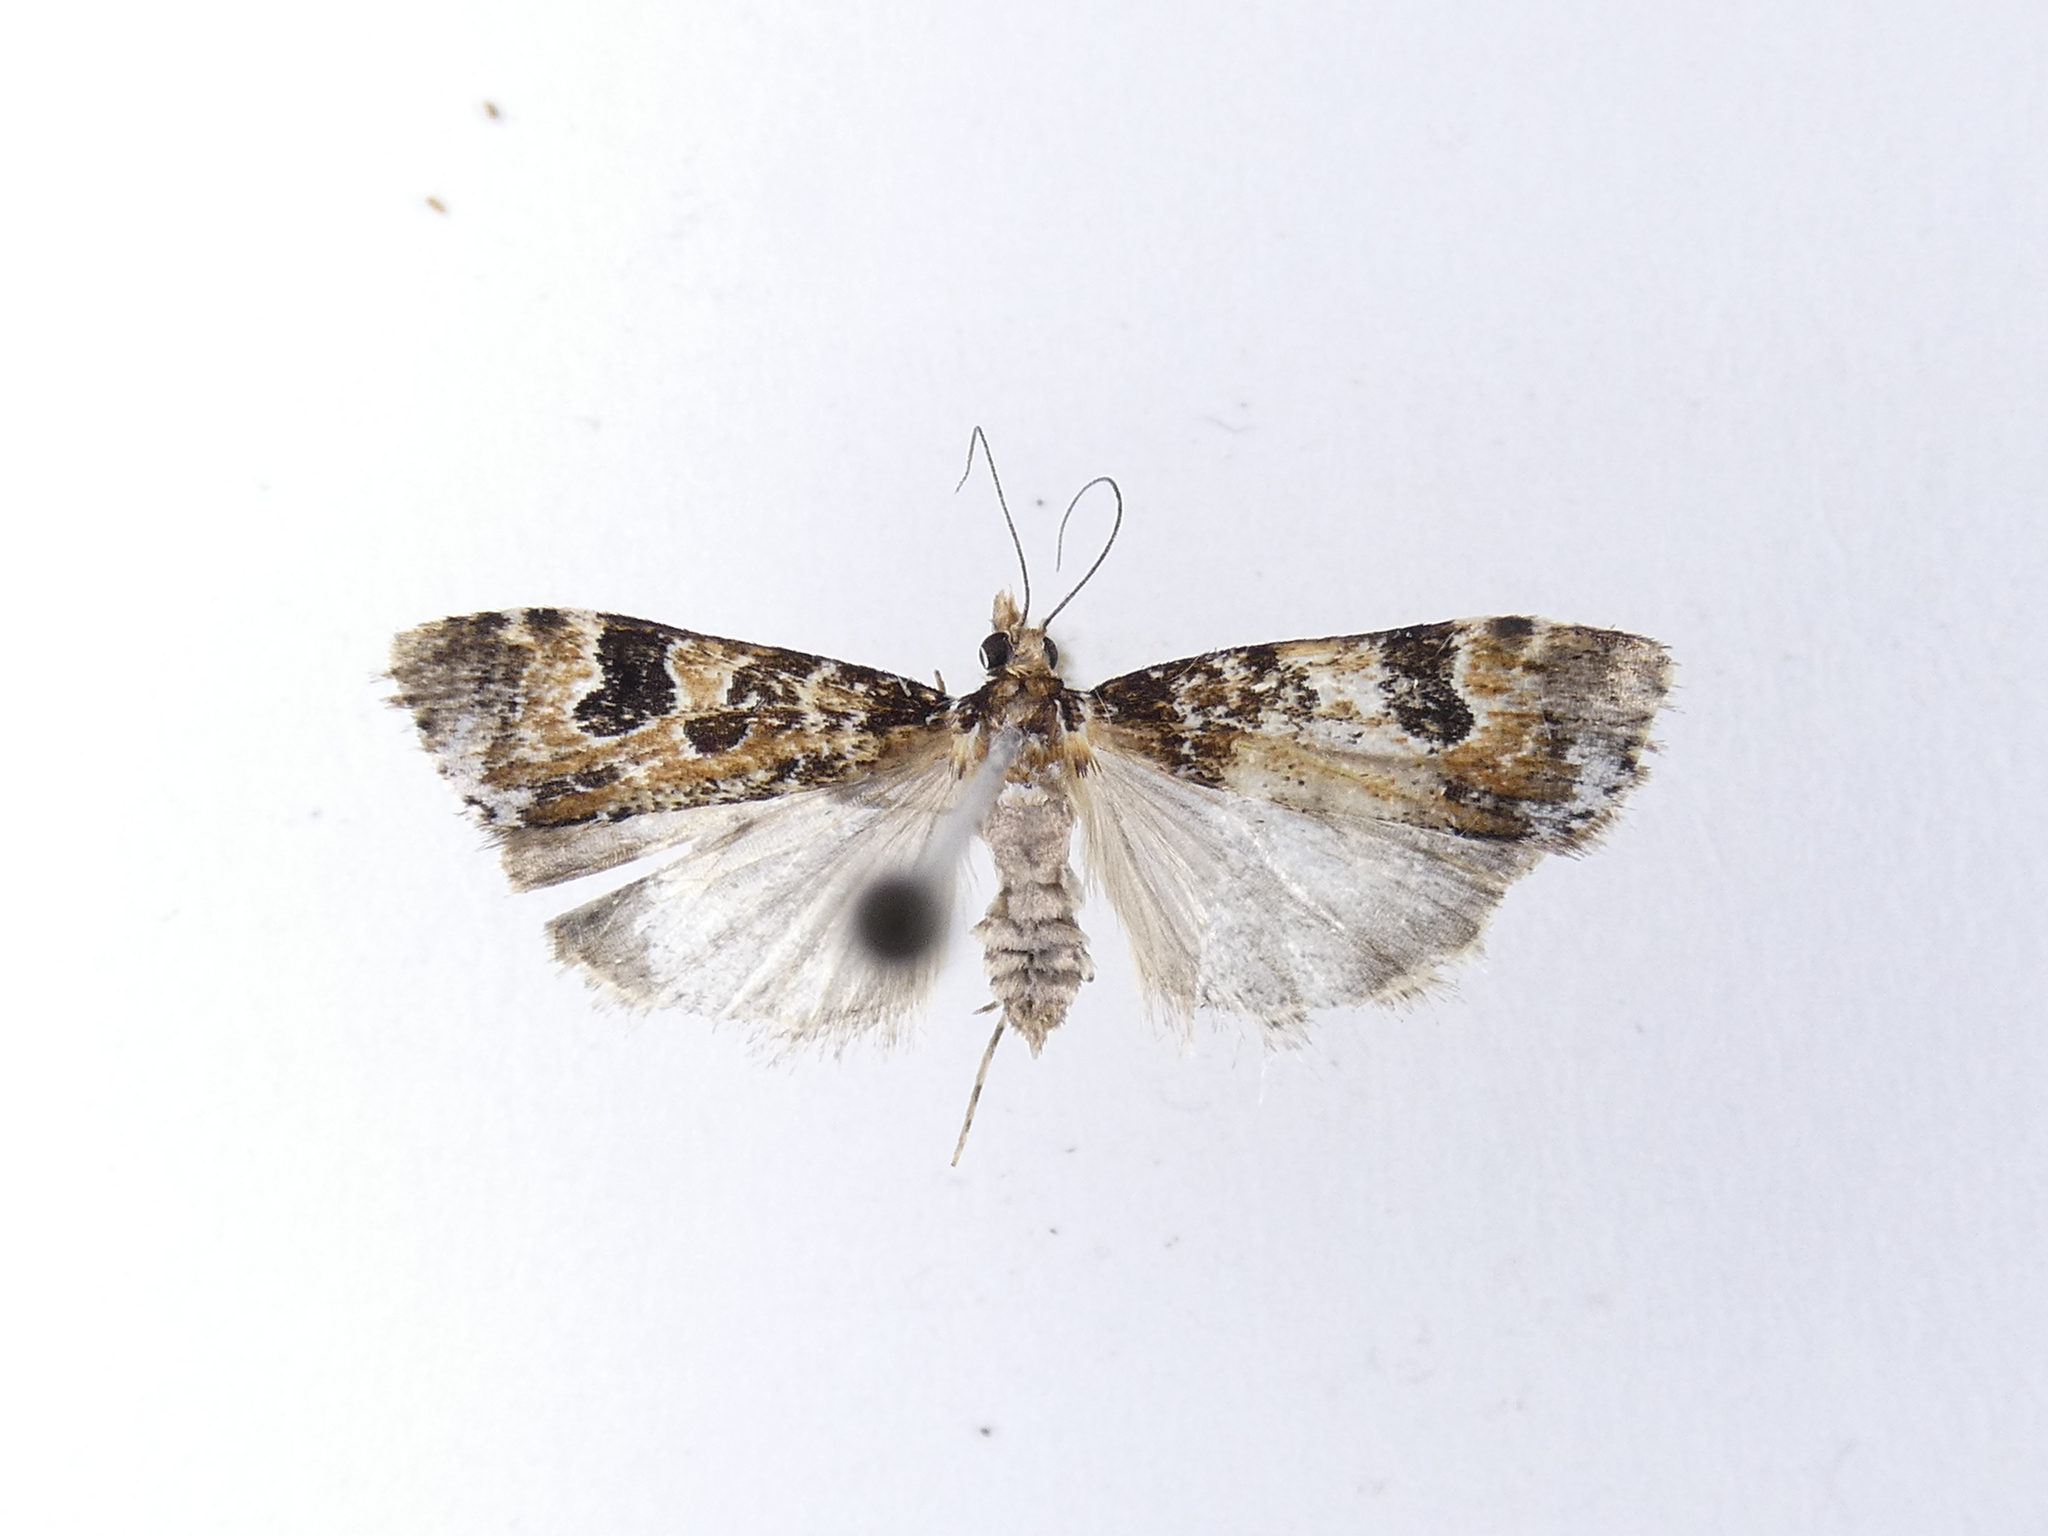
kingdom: Animalia
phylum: Arthropoda
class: Insecta
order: Lepidoptera
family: Crambidae
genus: Scoparia
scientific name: Scoparia ustimacula
